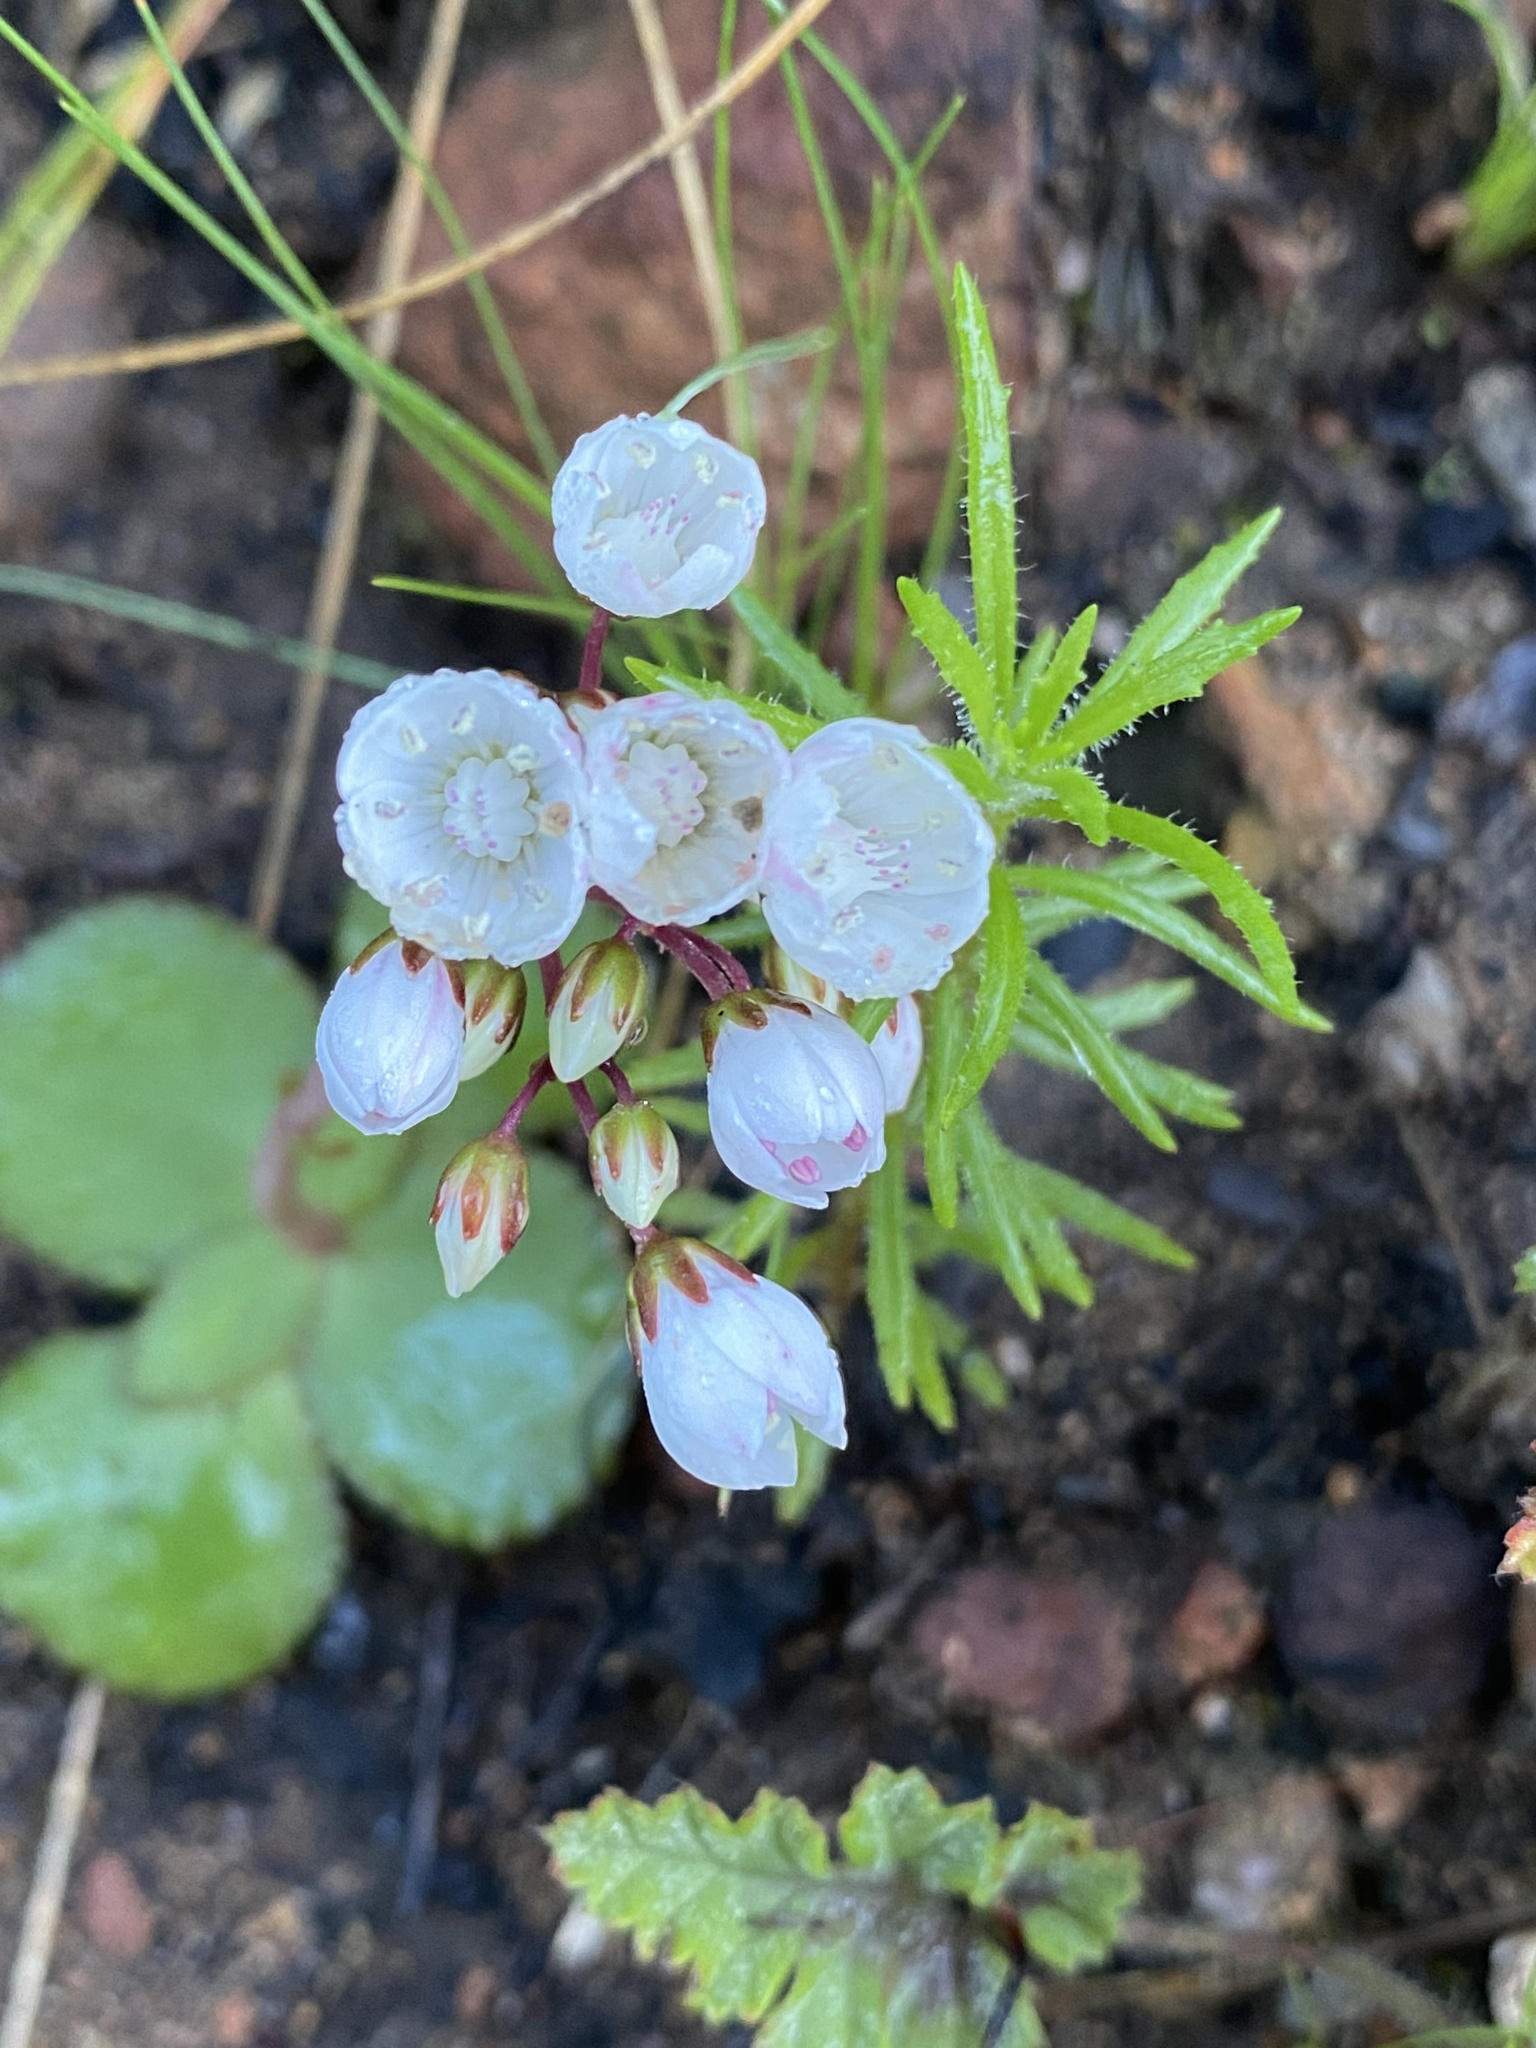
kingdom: Plantae
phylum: Tracheophyta
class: Magnoliopsida
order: Saxifragales
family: Crassulaceae
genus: Crassula
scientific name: Crassula capensis
